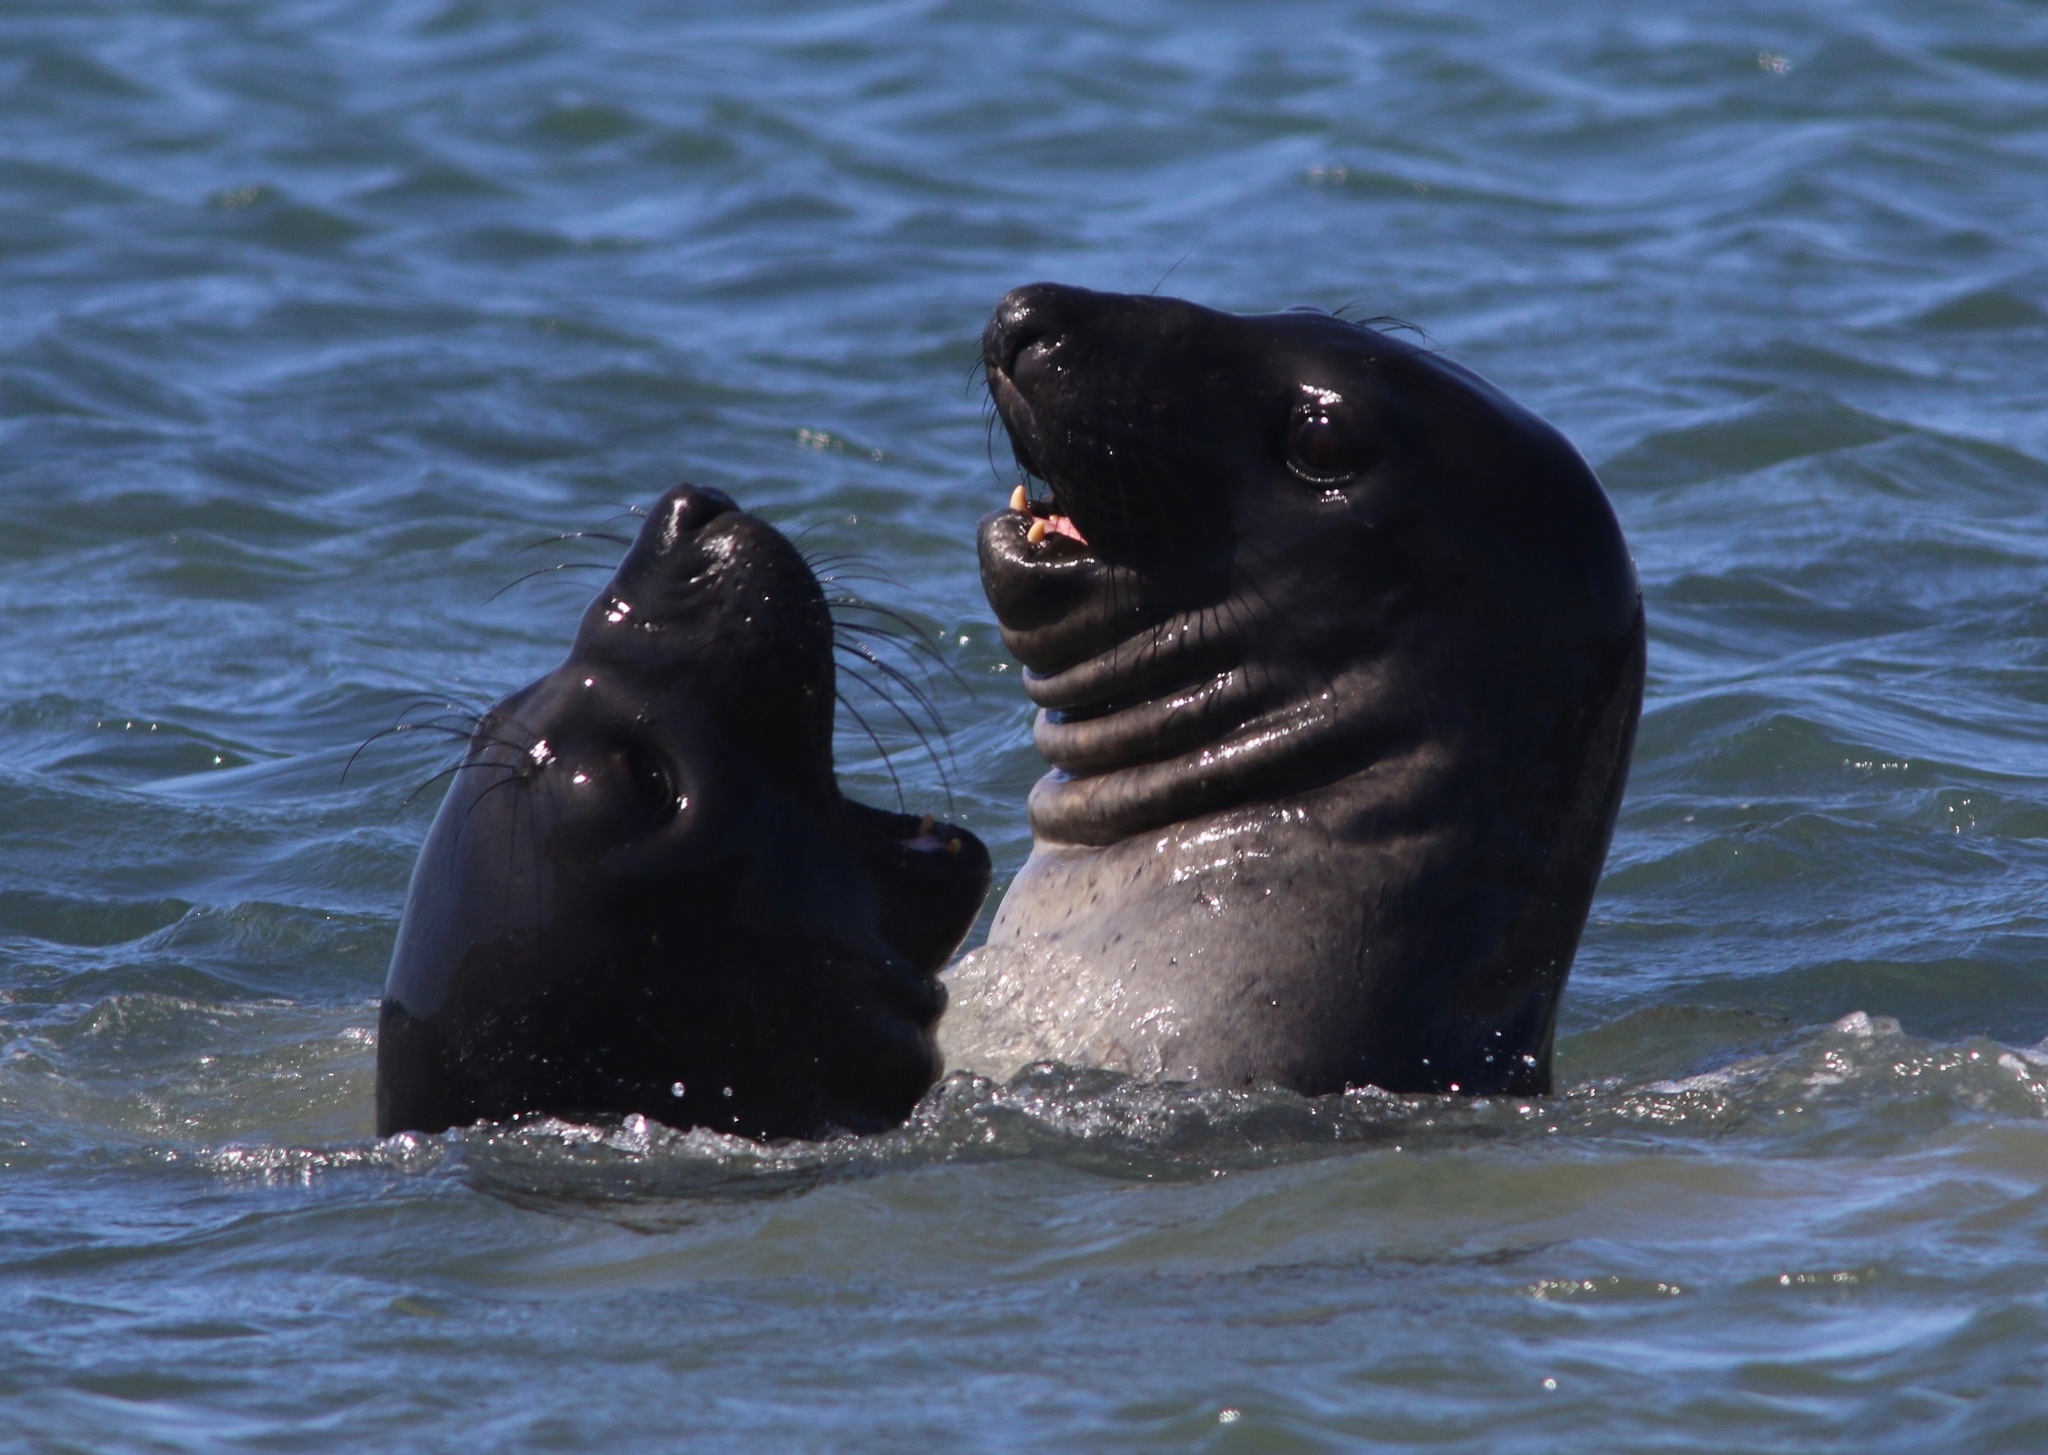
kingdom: Animalia
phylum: Chordata
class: Mammalia
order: Carnivora
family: Phocidae
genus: Mirounga
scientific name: Mirounga angustirostris
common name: Northern elephant seal
